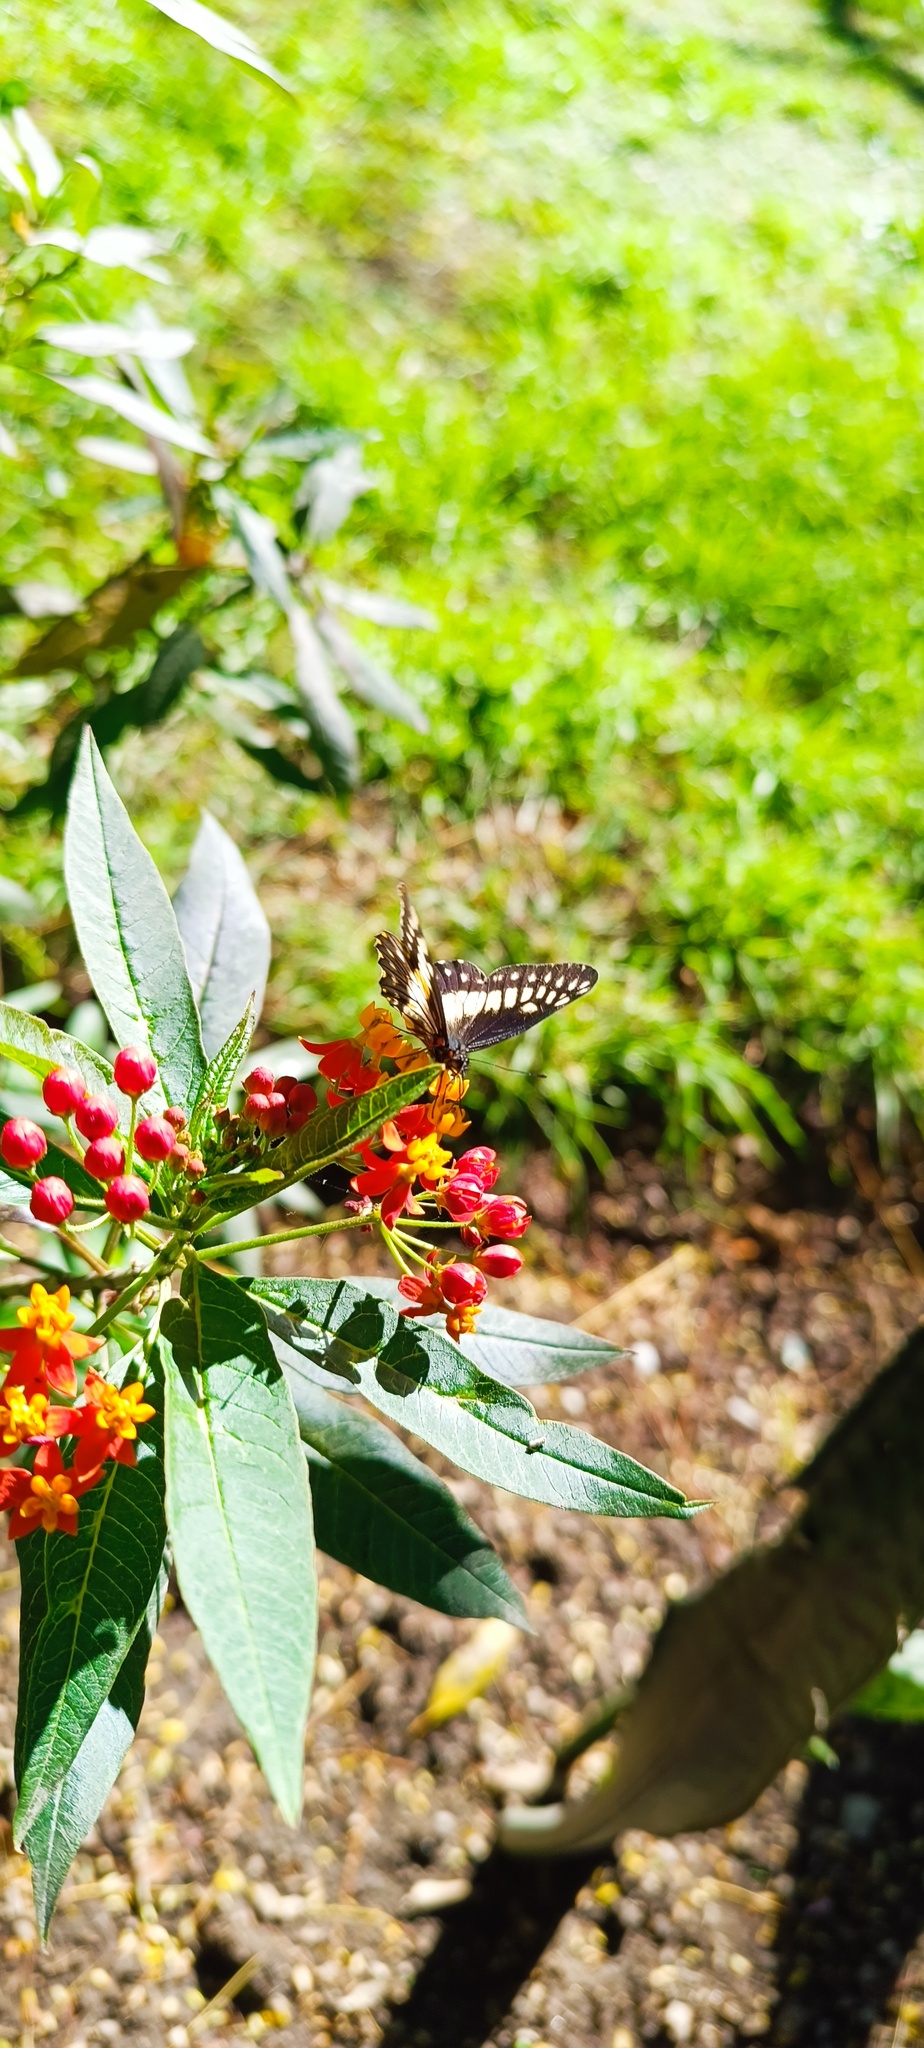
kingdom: Animalia
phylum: Arthropoda
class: Insecta
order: Lepidoptera
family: Pieridae
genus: Archonias
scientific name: Archonias nimbice
